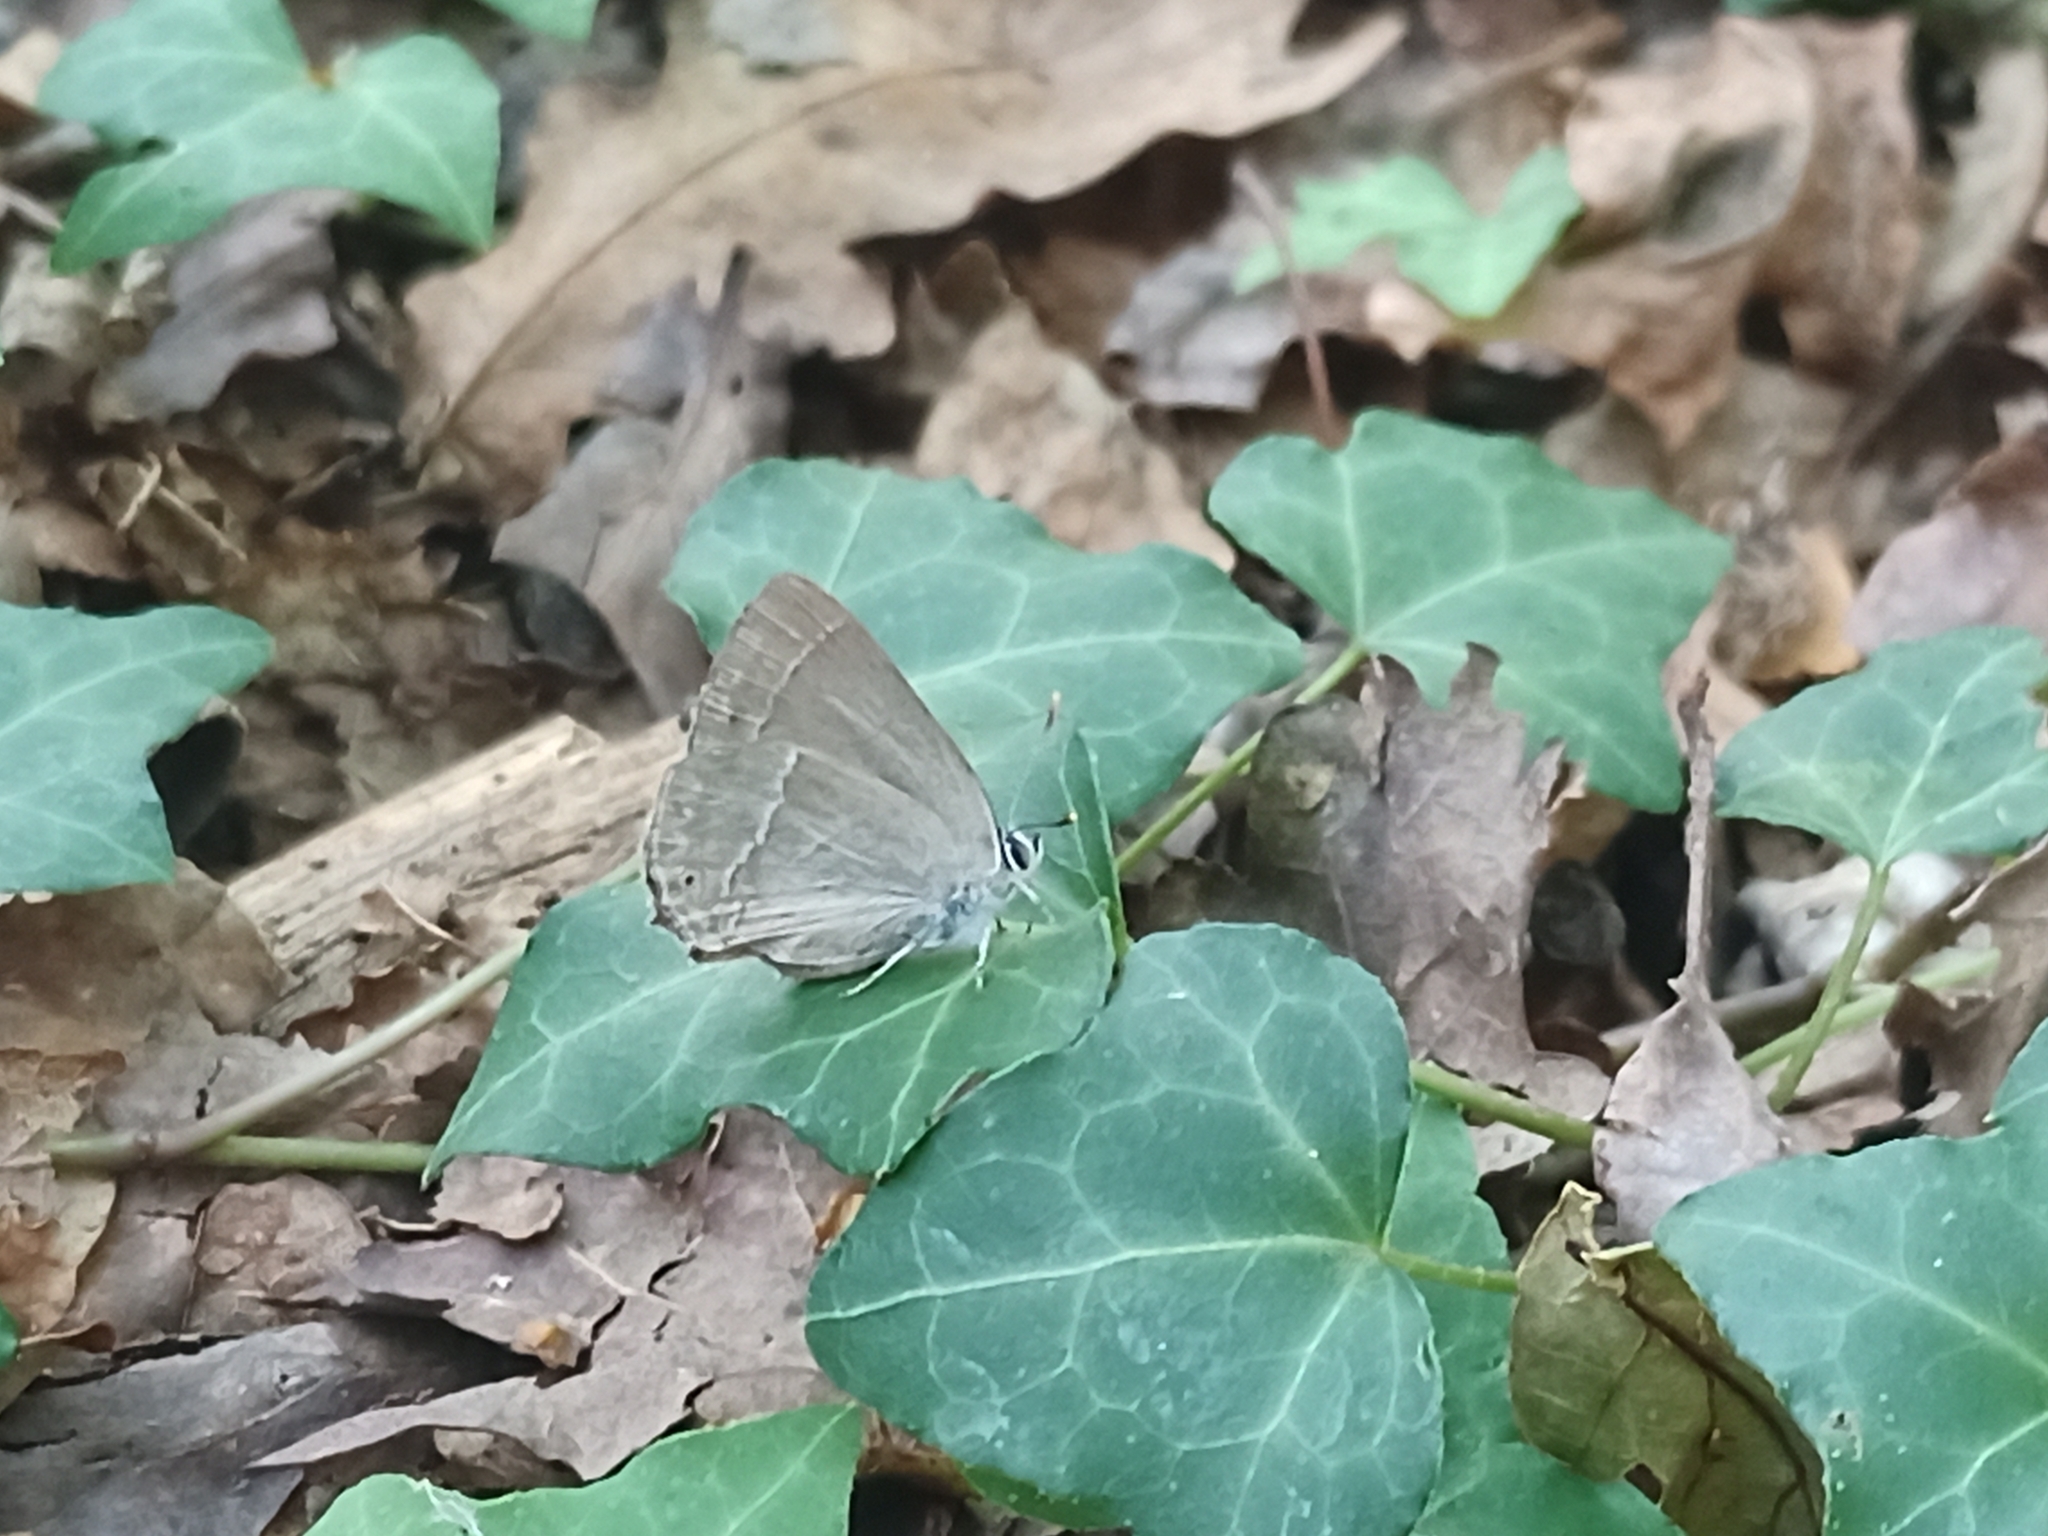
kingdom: Animalia
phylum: Arthropoda
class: Insecta
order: Lepidoptera
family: Lycaenidae
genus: Quercusia
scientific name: Quercusia quercus
